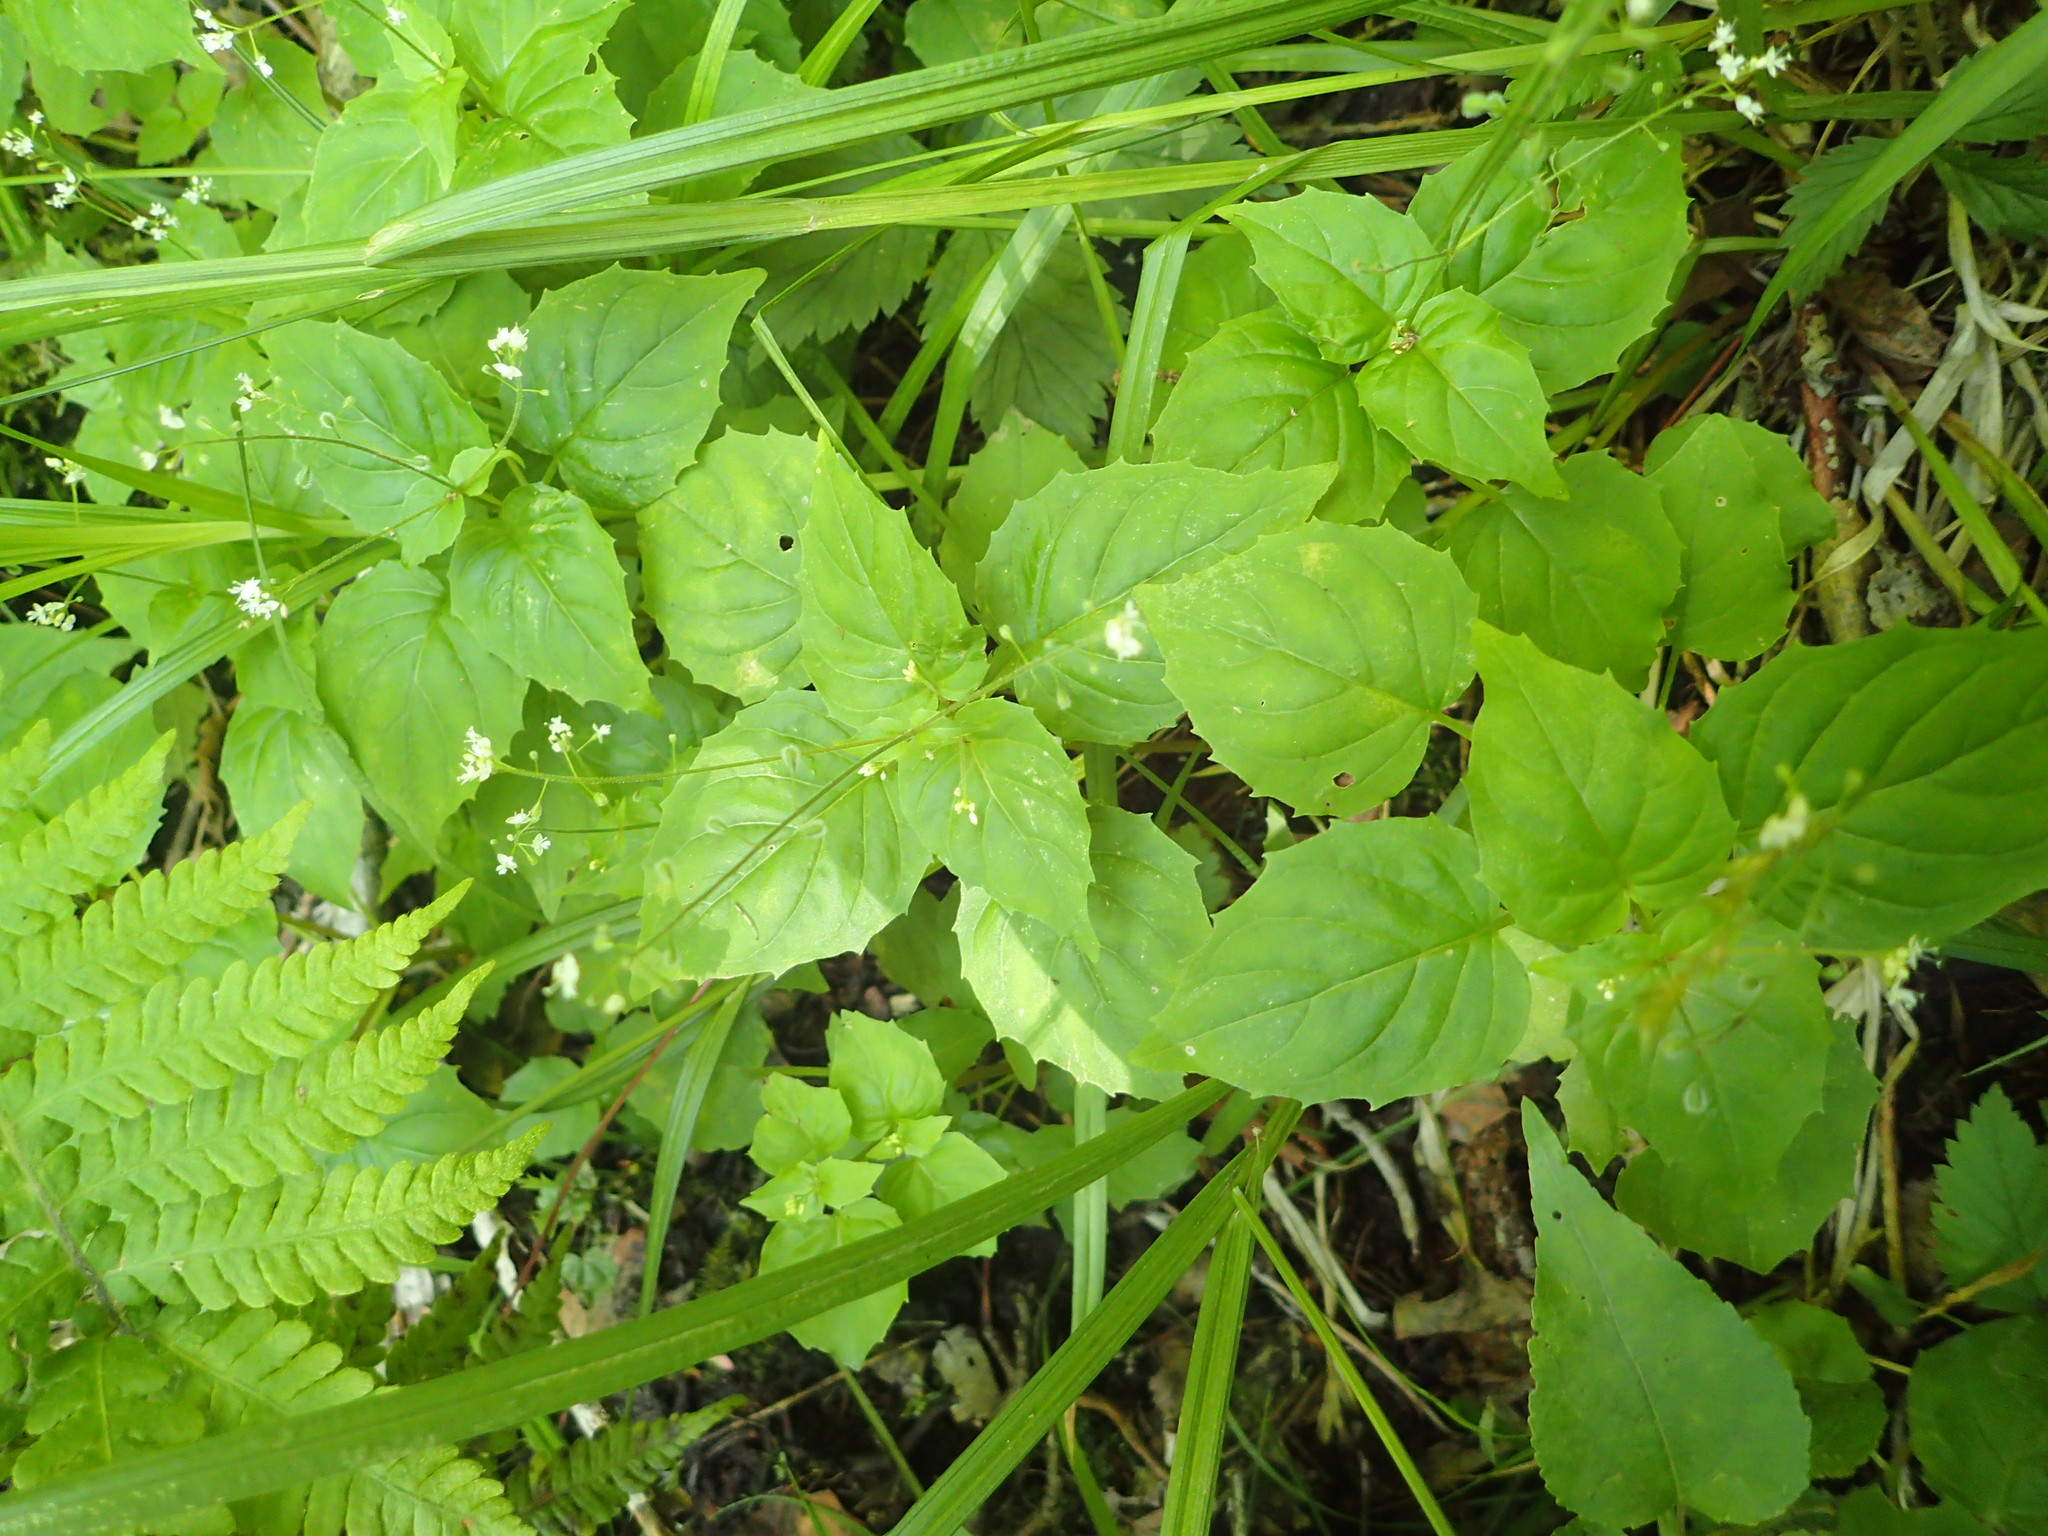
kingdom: Plantae
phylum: Tracheophyta
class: Magnoliopsida
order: Myrtales
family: Onagraceae
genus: Circaea
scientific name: Circaea alpina
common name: Alpine enchanter's-nightshade
